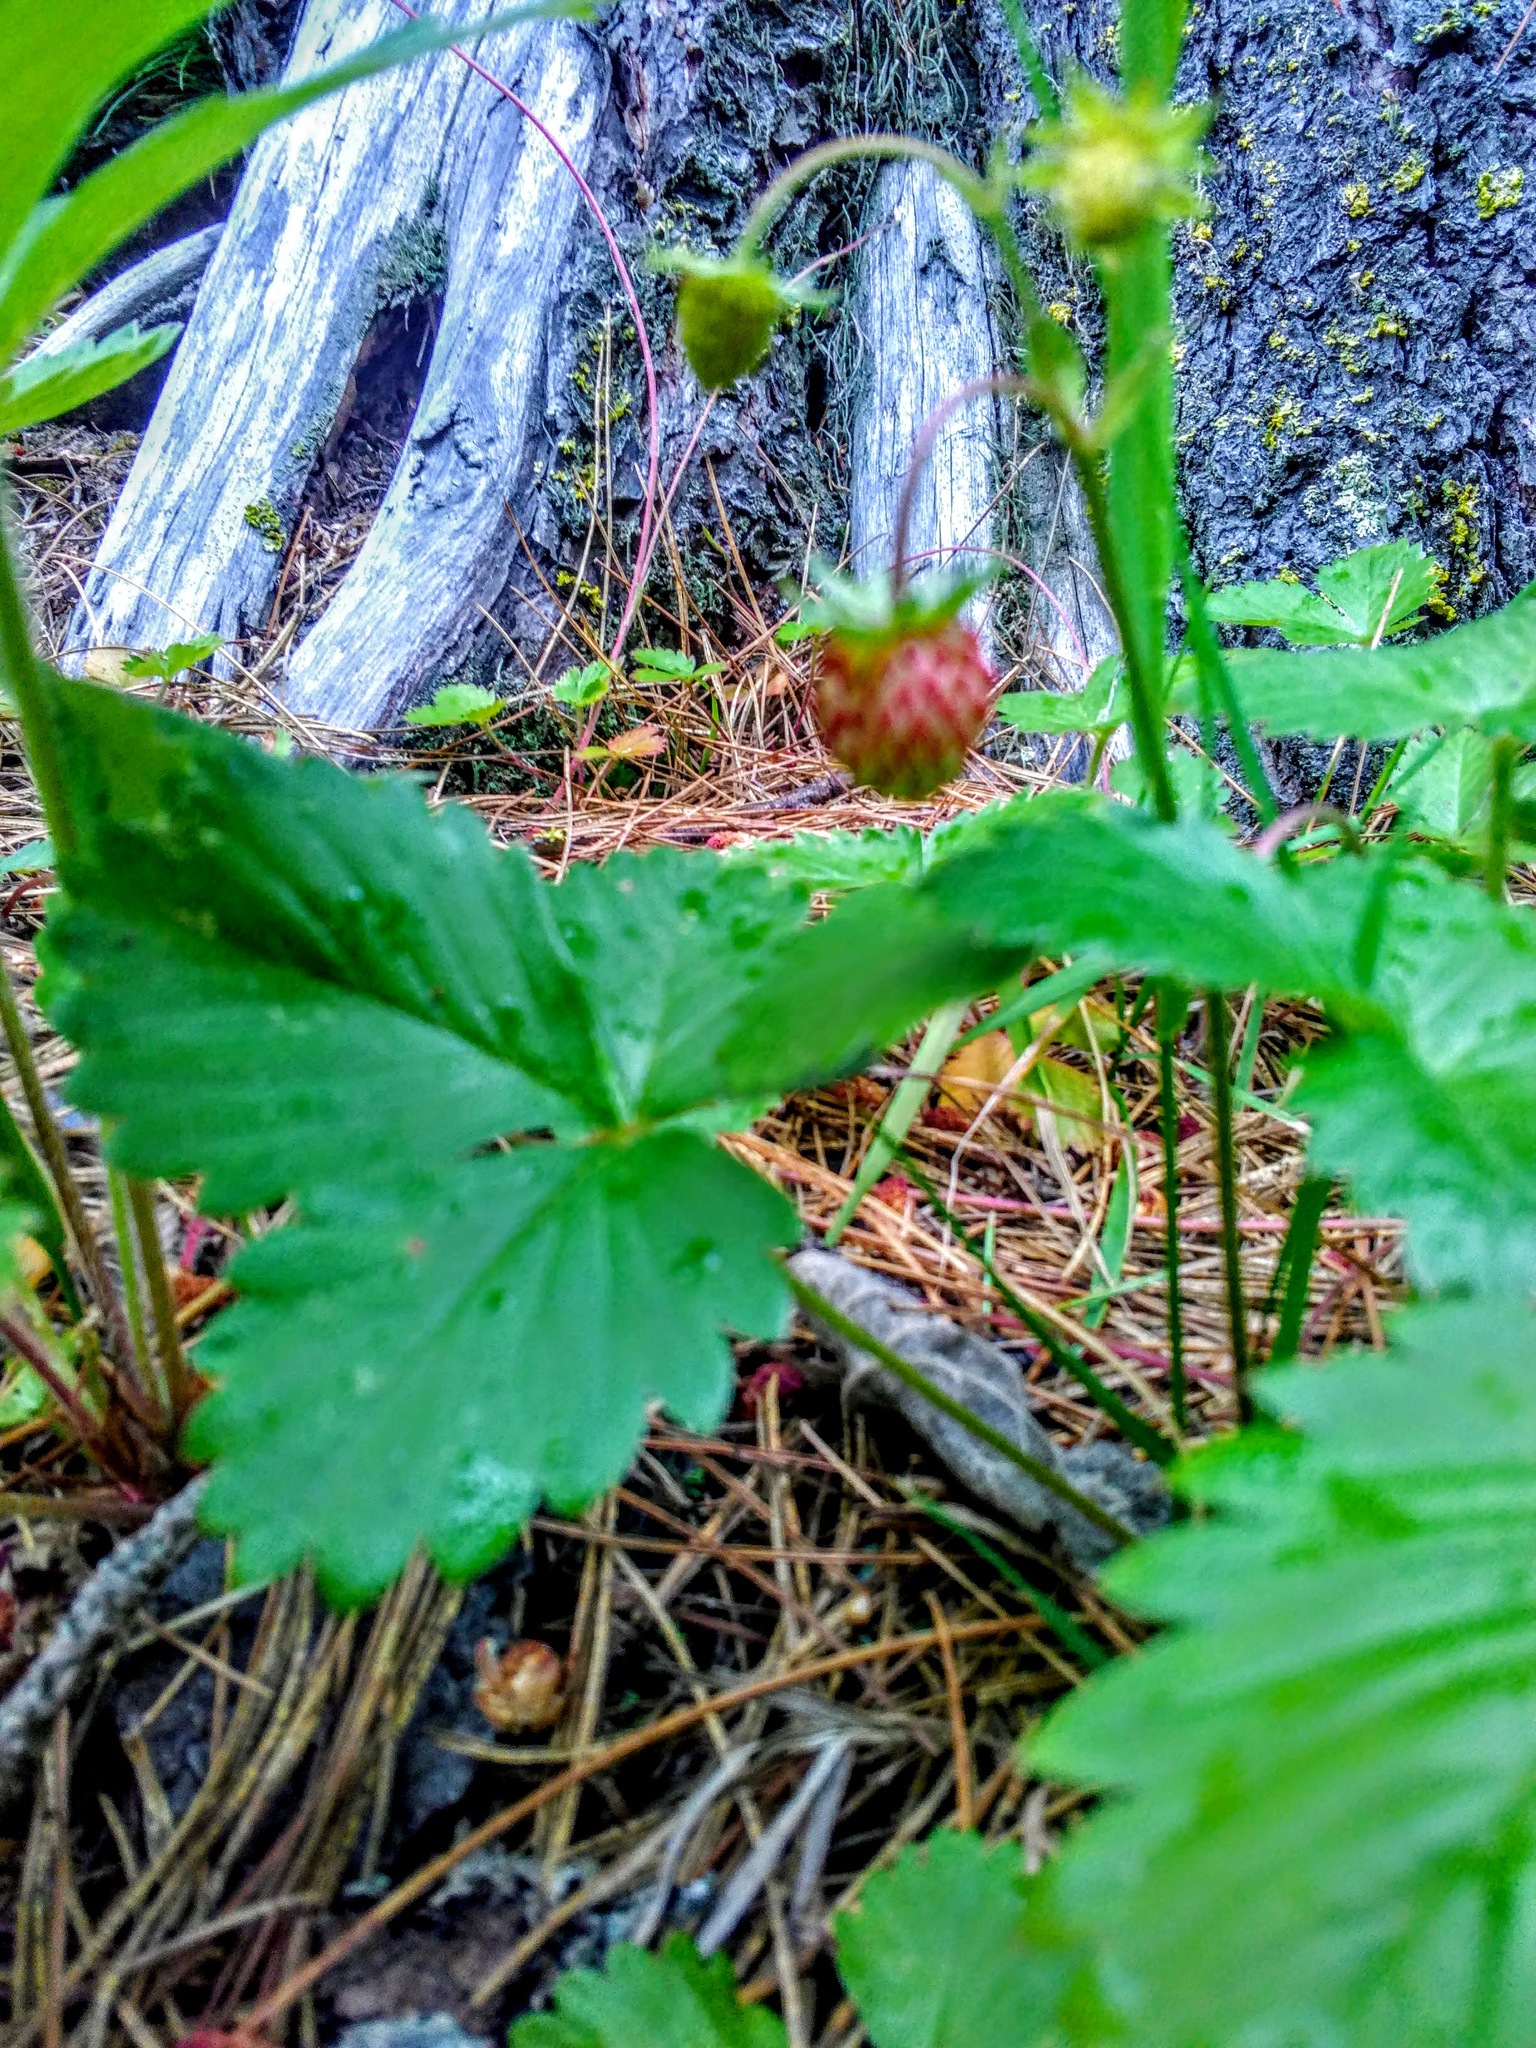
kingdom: Plantae
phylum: Tracheophyta
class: Magnoliopsida
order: Rosales
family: Rosaceae
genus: Fragaria
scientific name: Fragaria vesca
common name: Wild strawberry
